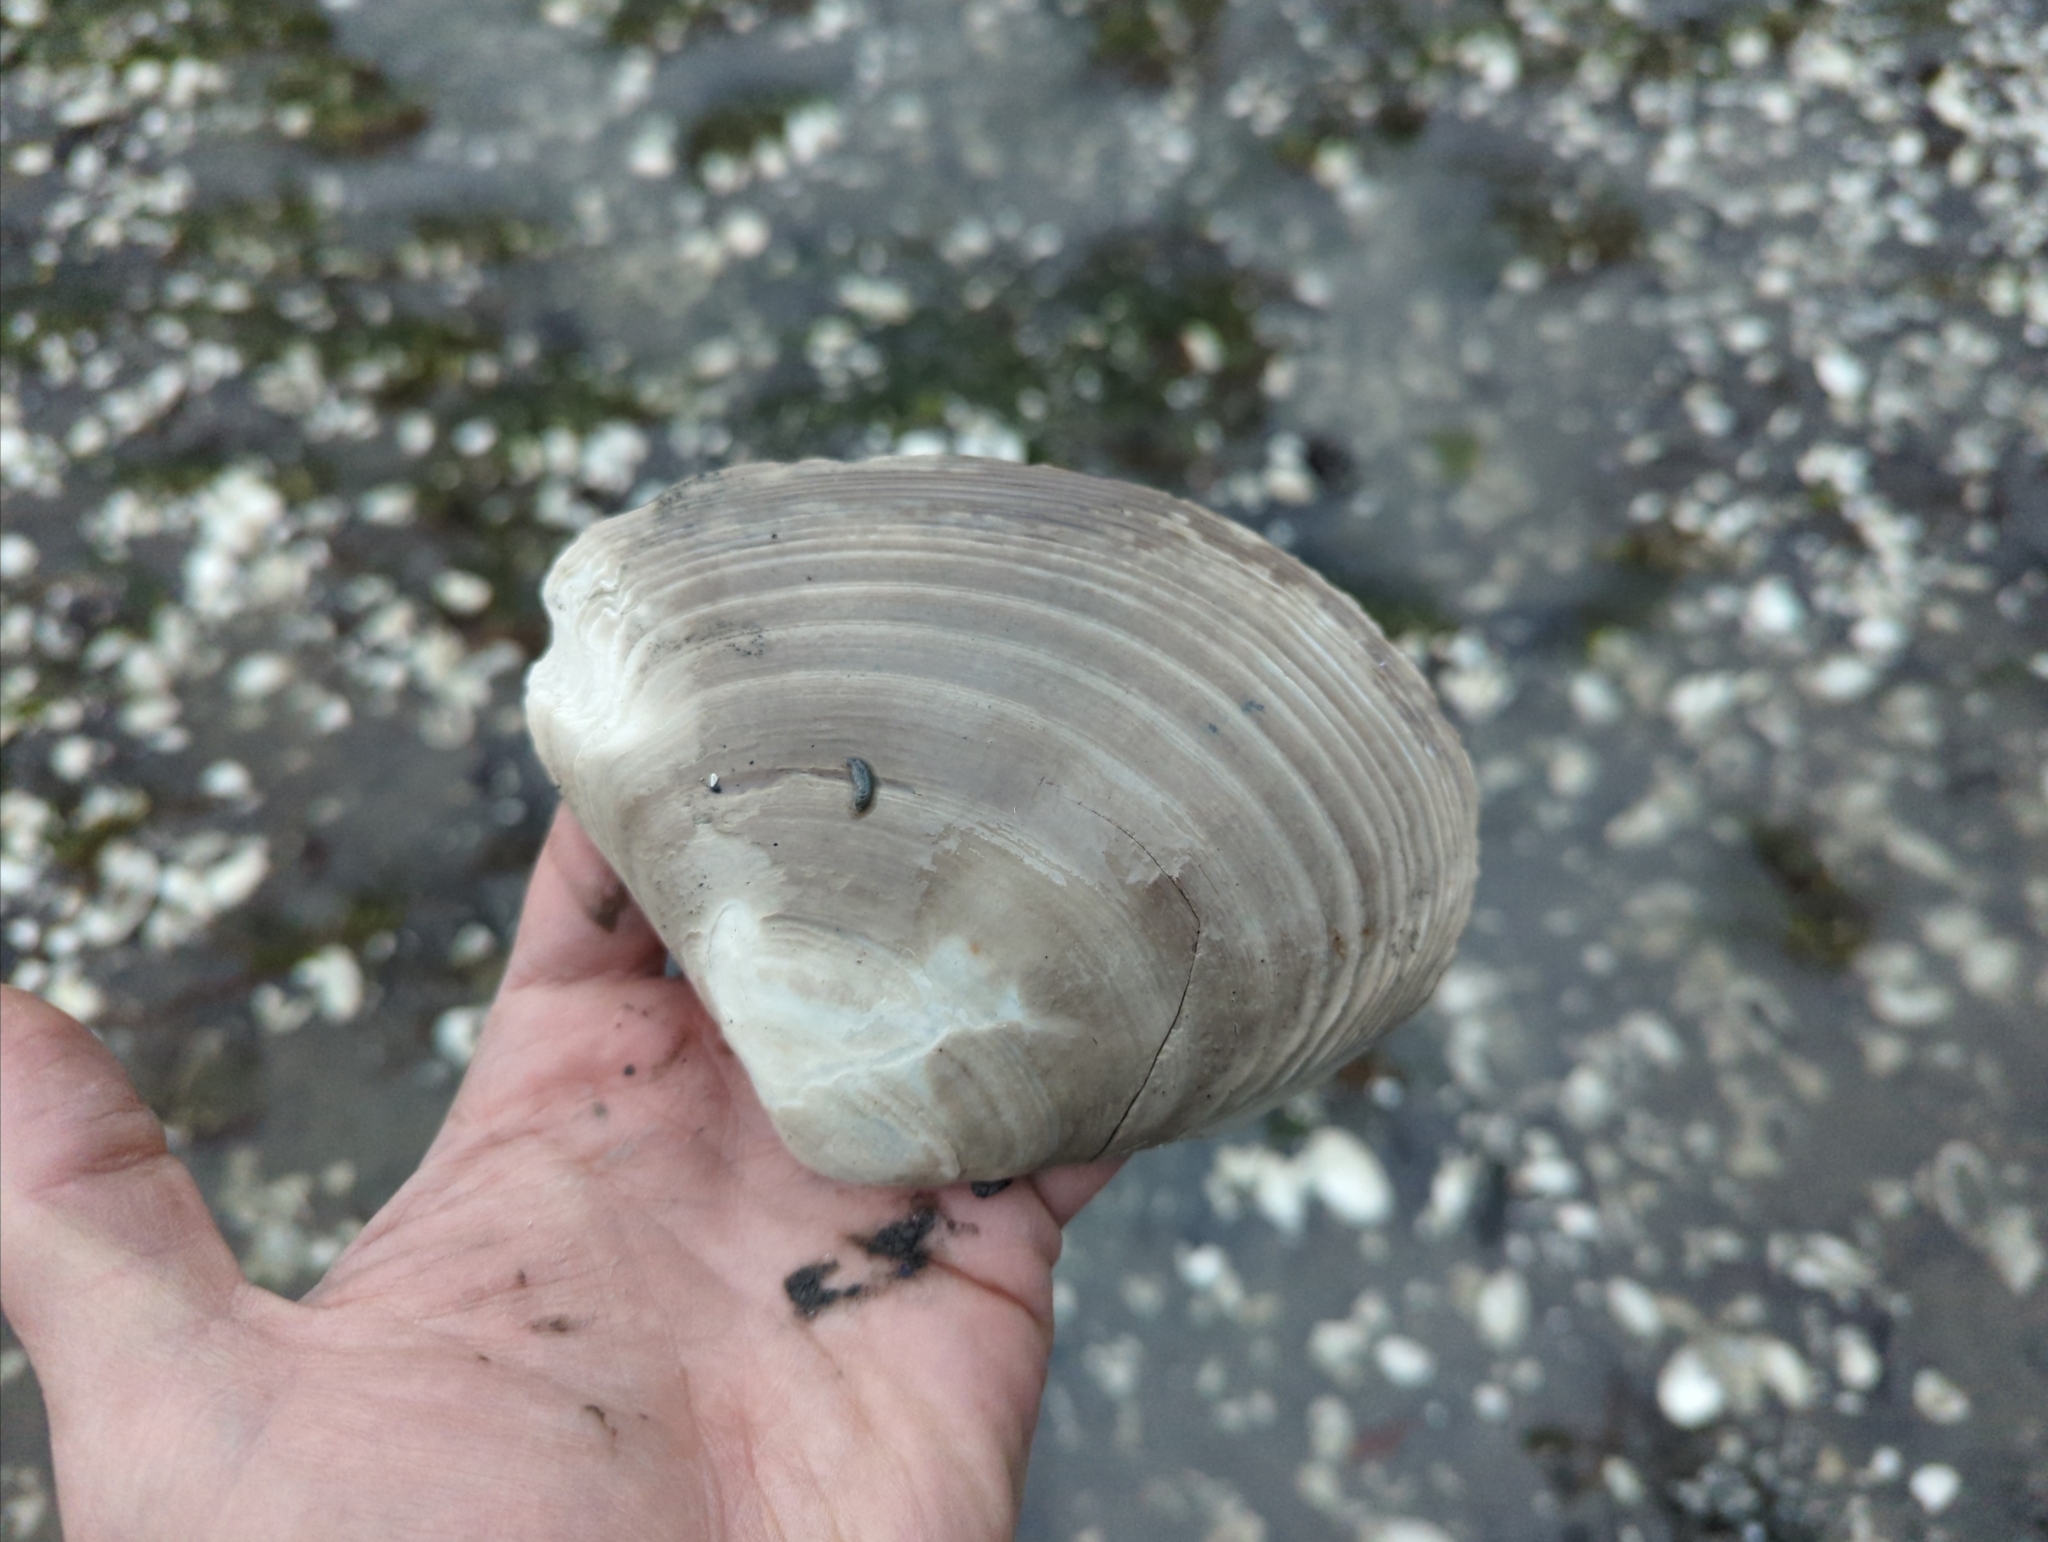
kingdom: Animalia
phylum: Mollusca
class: Bivalvia
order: Venerida
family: Mactridae
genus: Mactromeris
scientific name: Mactromeris polynyma
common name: Arctic surf clam
